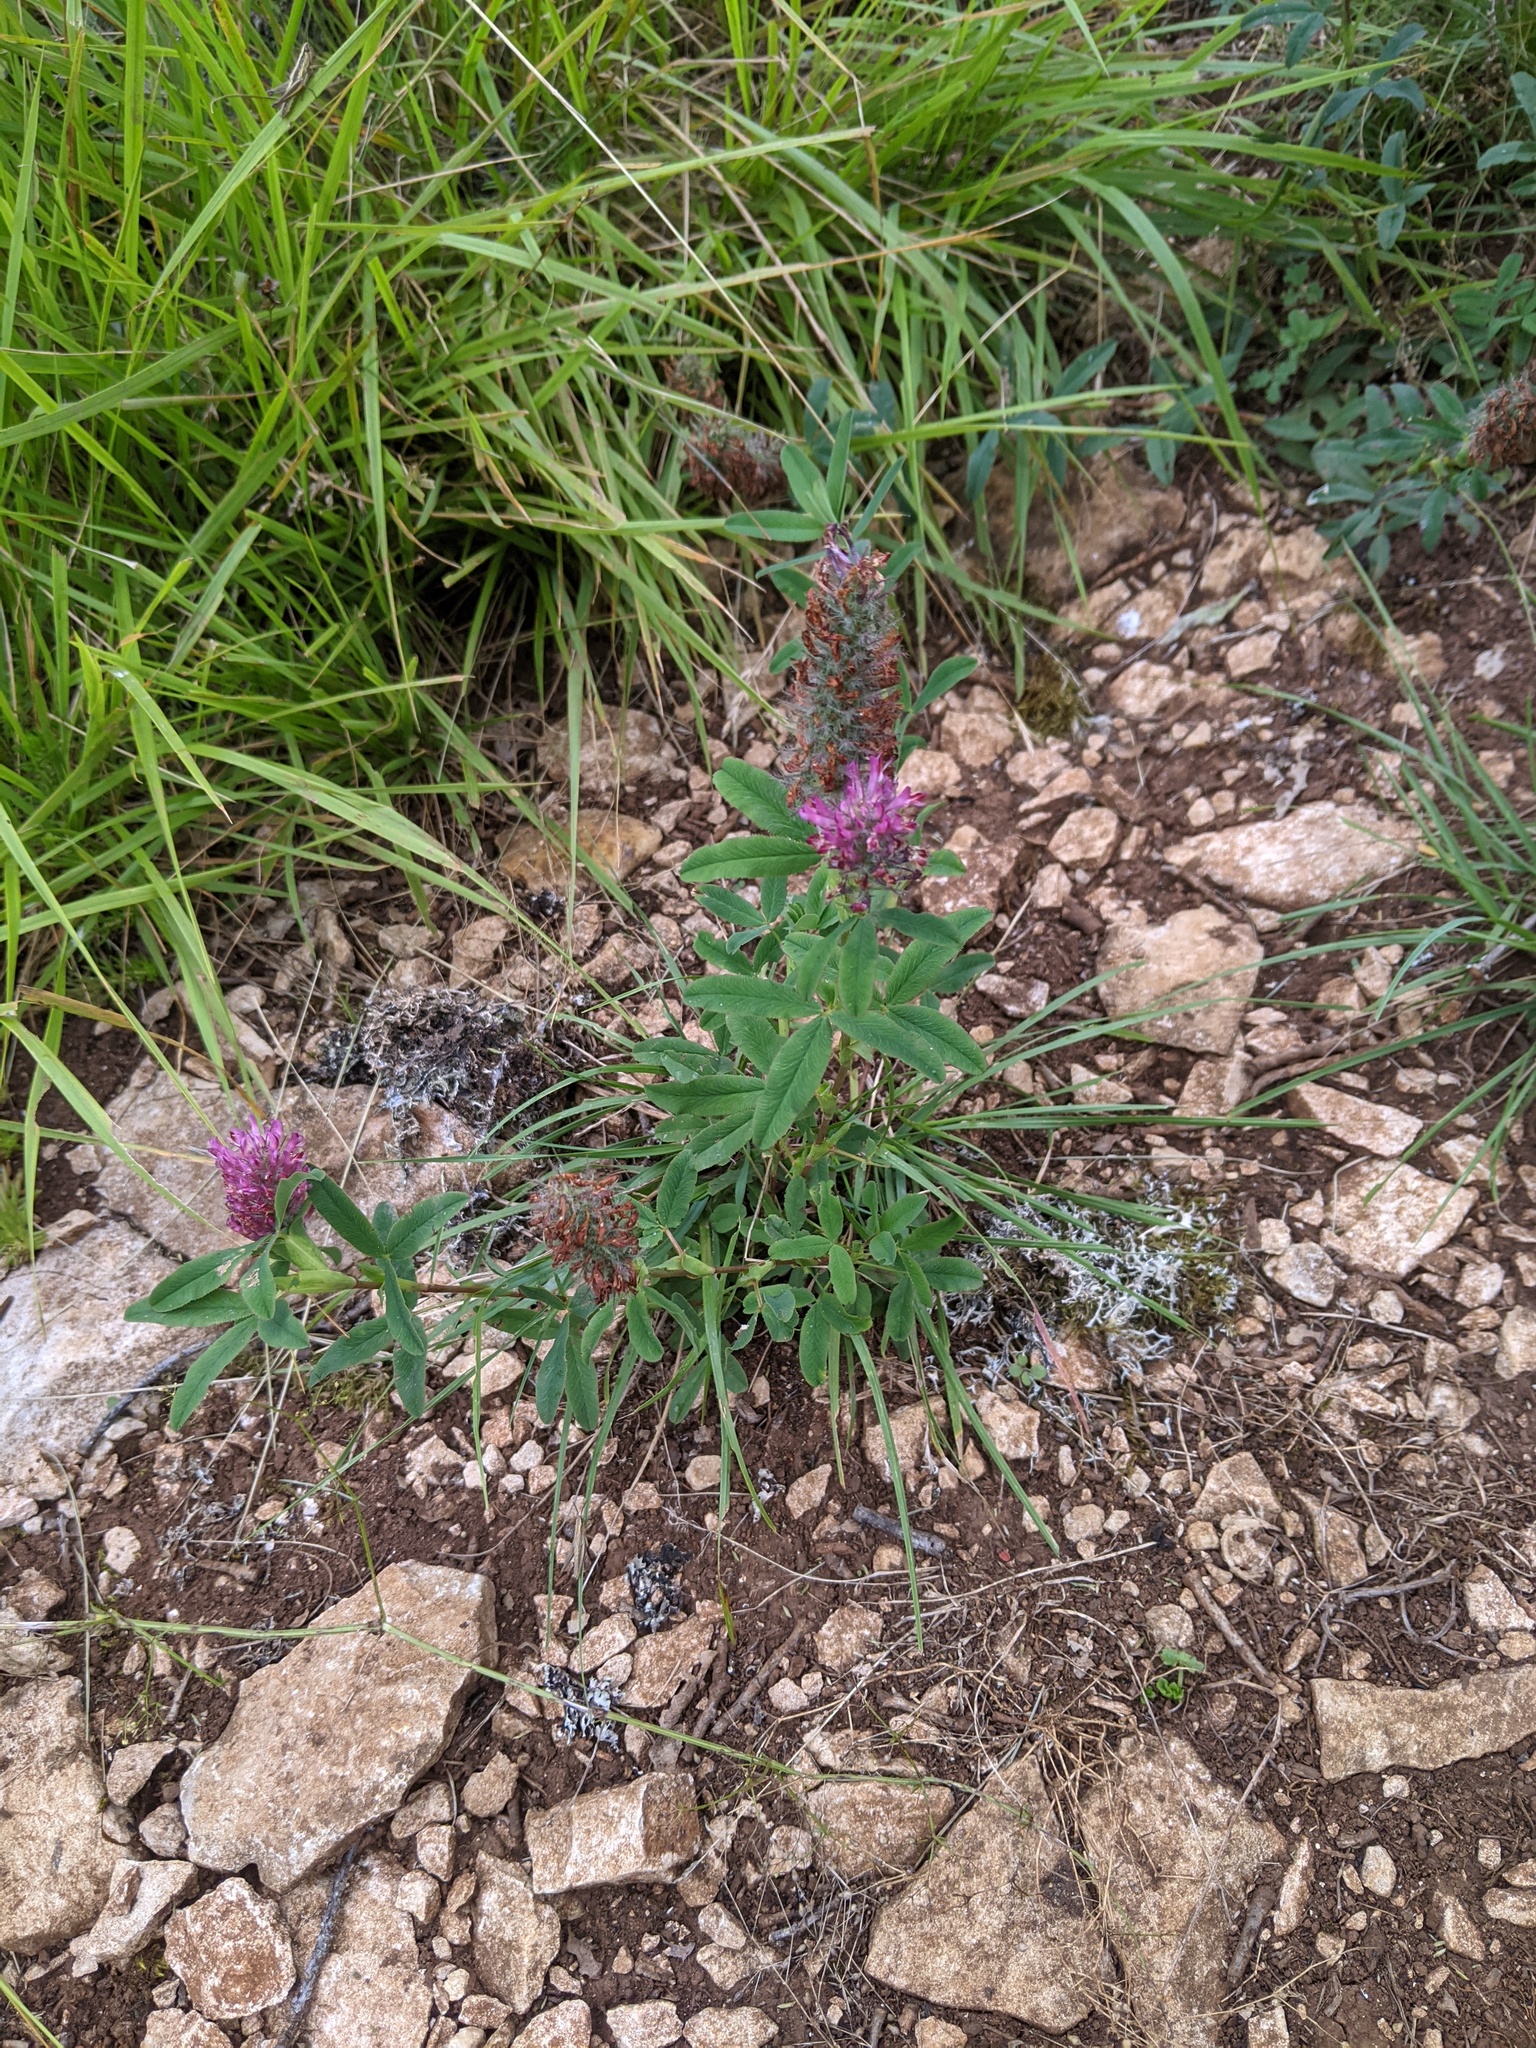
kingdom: Plantae
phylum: Tracheophyta
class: Magnoliopsida
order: Fabales
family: Fabaceae
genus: Trifolium
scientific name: Trifolium rubens
